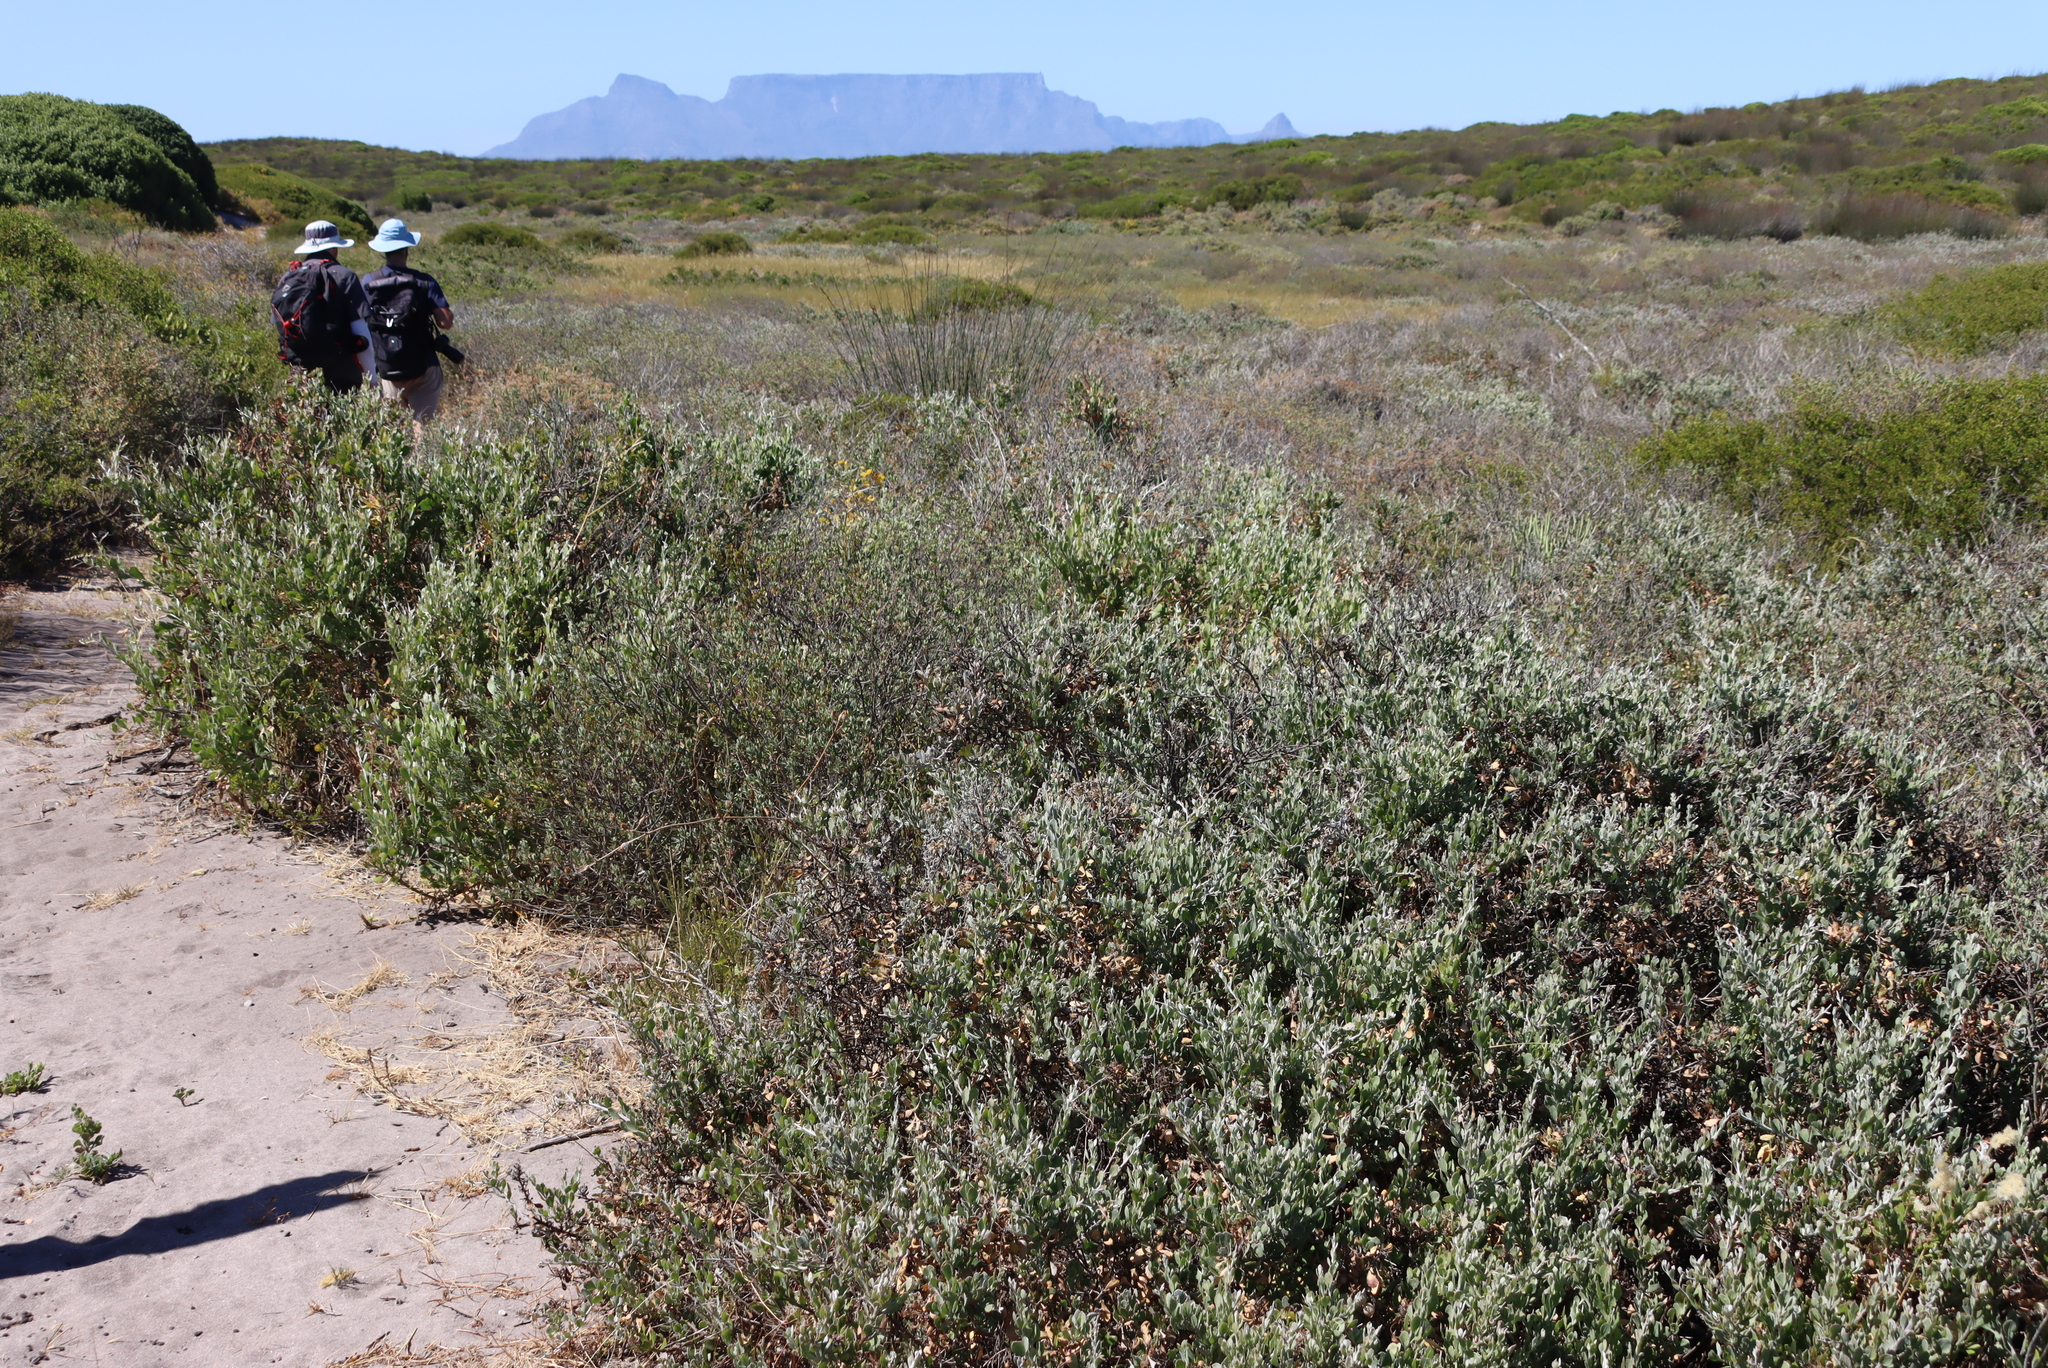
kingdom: Plantae
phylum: Tracheophyta
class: Magnoliopsida
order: Asterales
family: Asteraceae
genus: Osteospermum
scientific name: Osteospermum incanum
